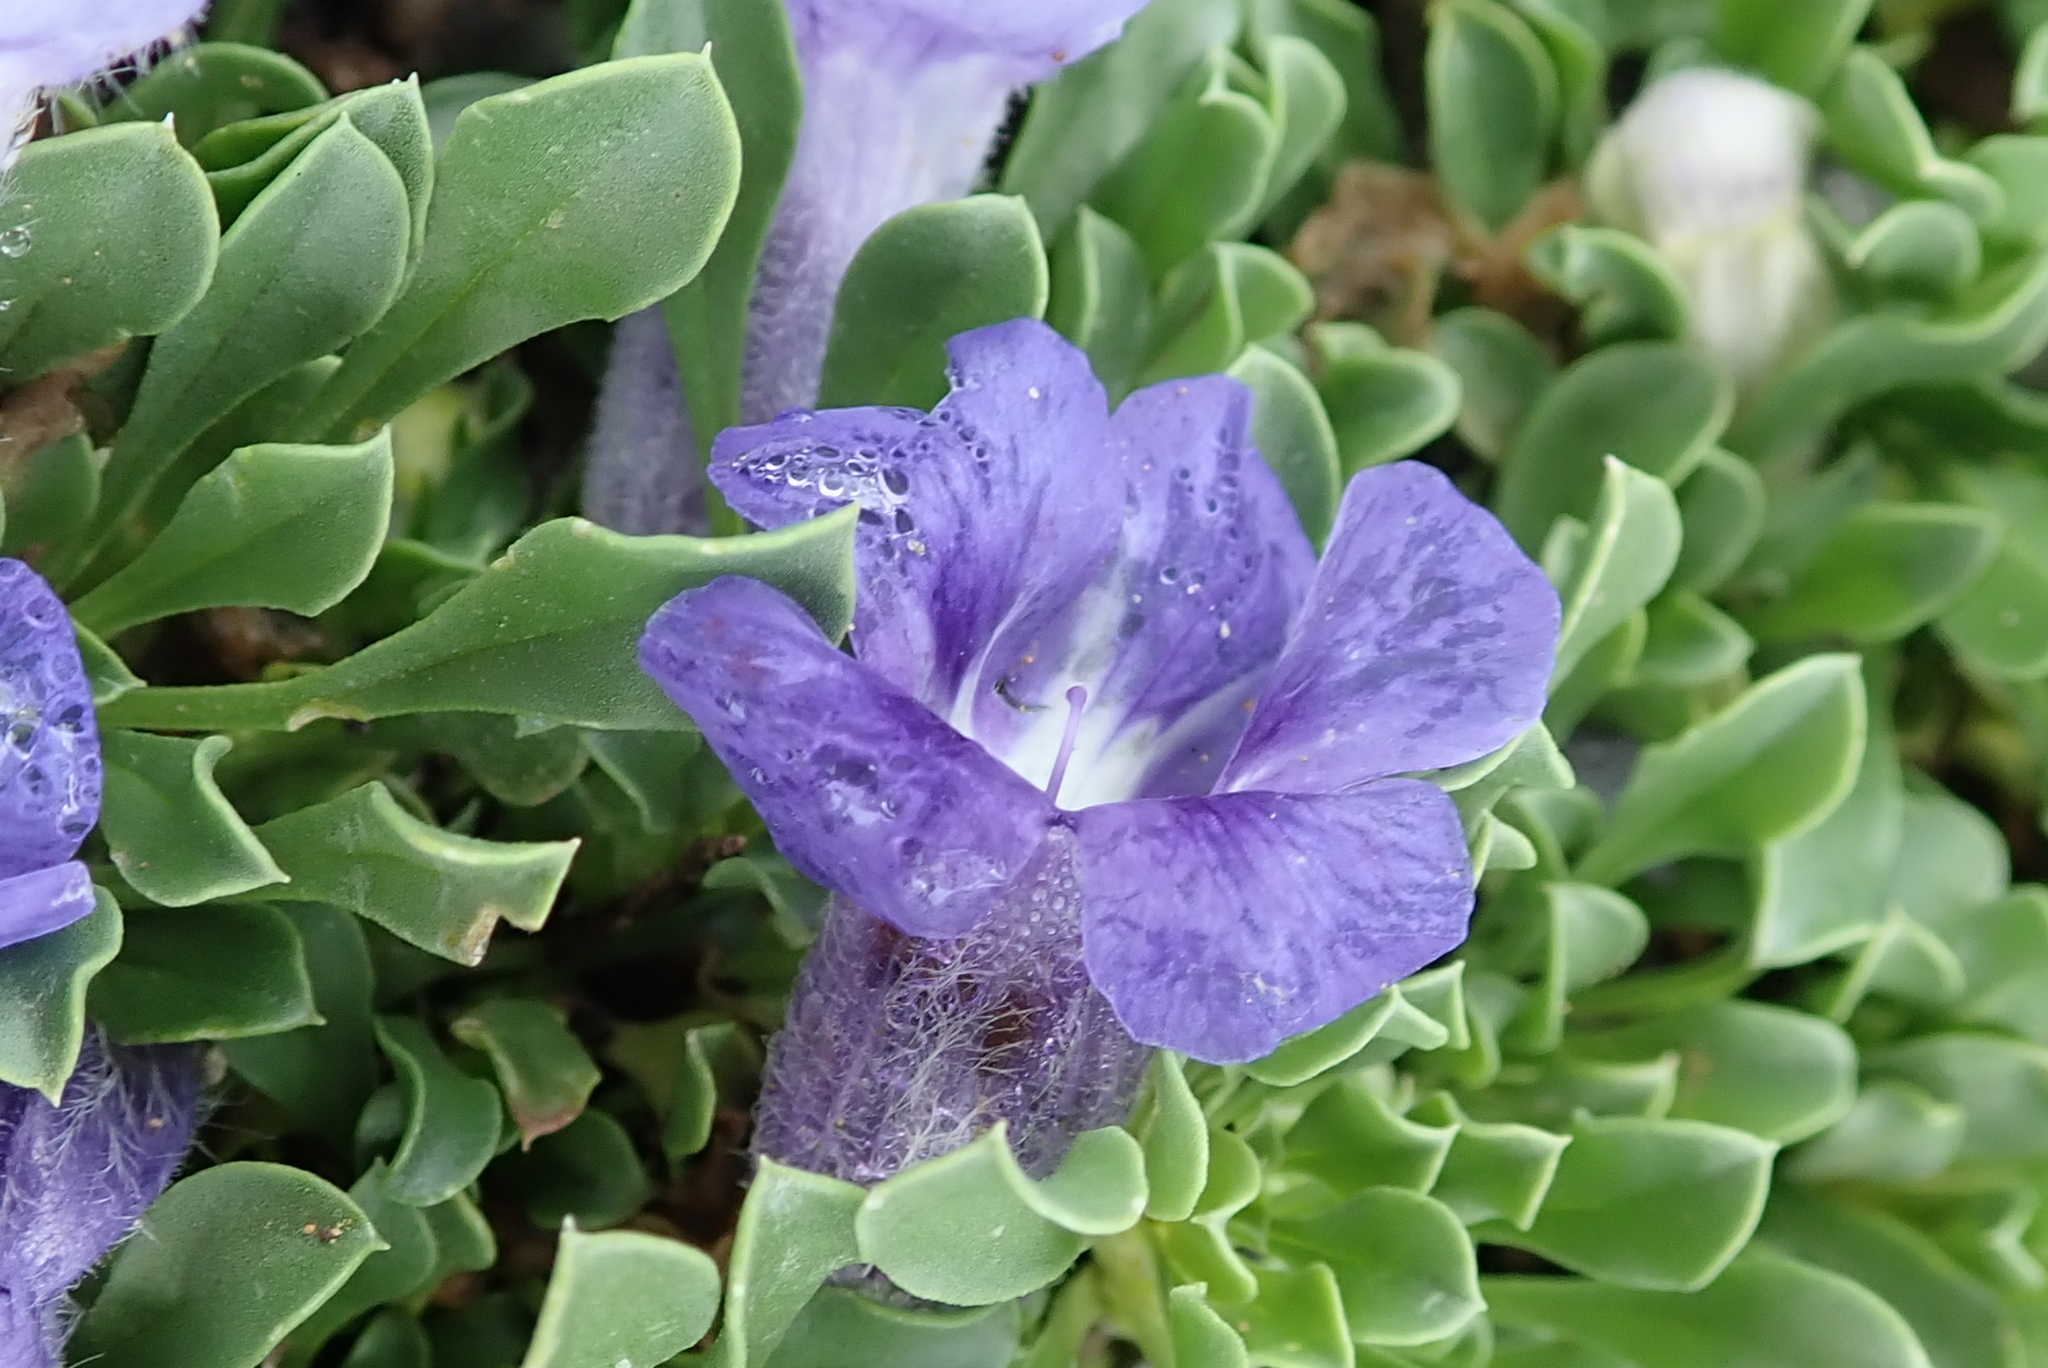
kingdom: Plantae
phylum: Tracheophyta
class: Magnoliopsida
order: Lamiales
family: Scrophulariaceae
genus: Aptosimum
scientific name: Aptosimum procumbens
